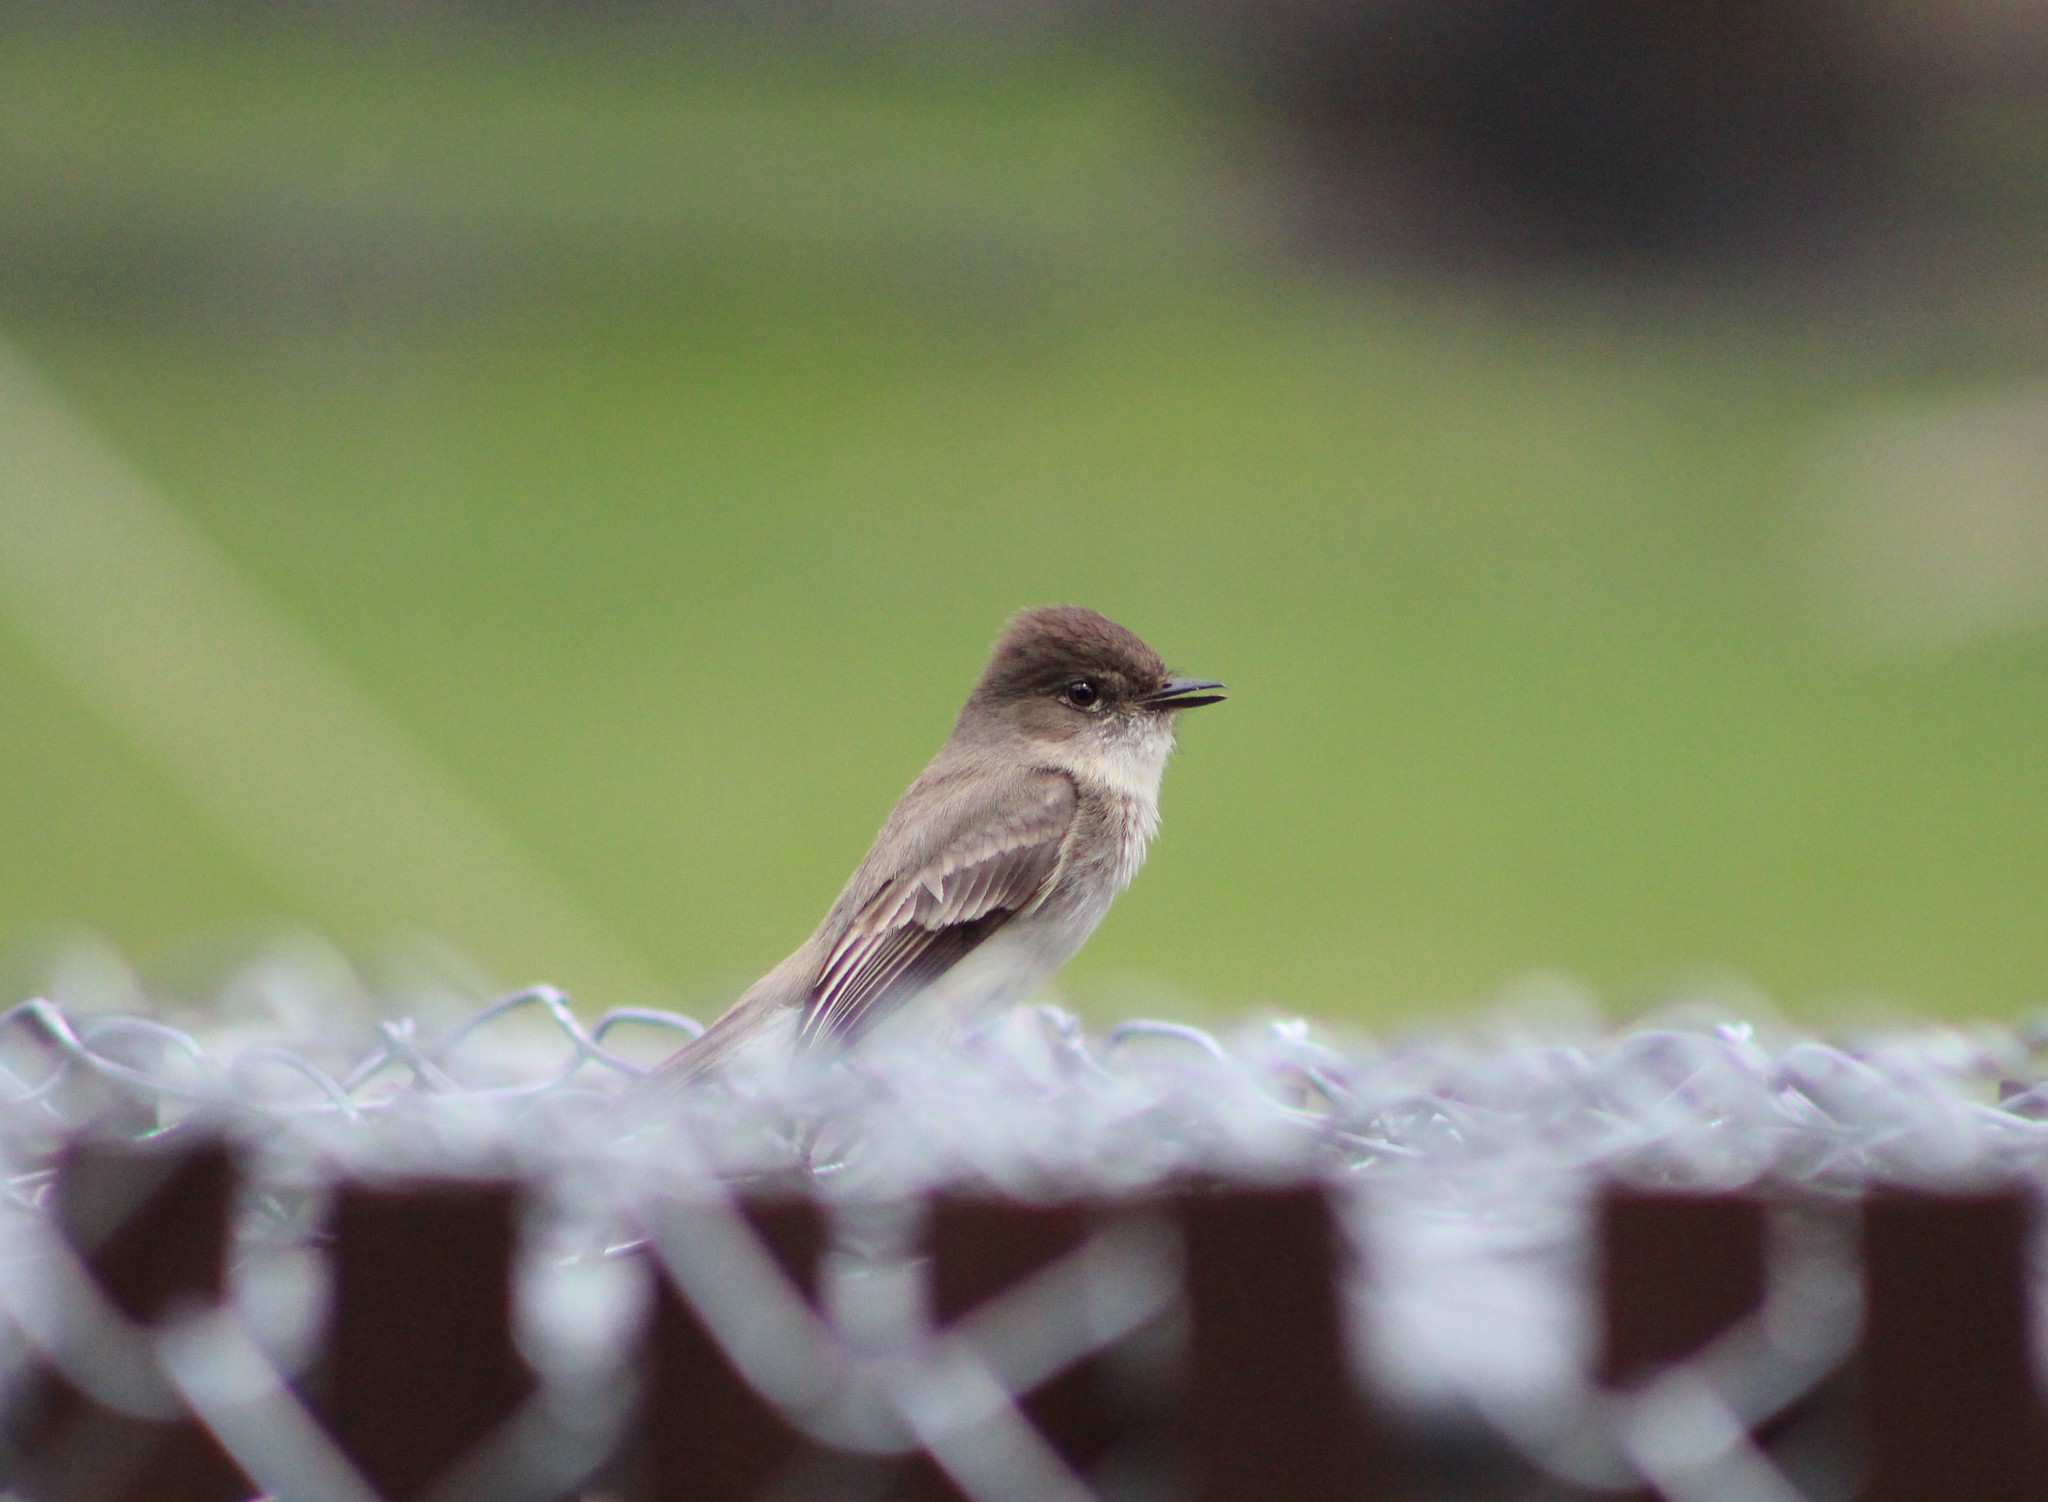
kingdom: Animalia
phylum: Chordata
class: Aves
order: Passeriformes
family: Tyrannidae
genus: Sayornis
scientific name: Sayornis phoebe
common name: Eastern phoebe
